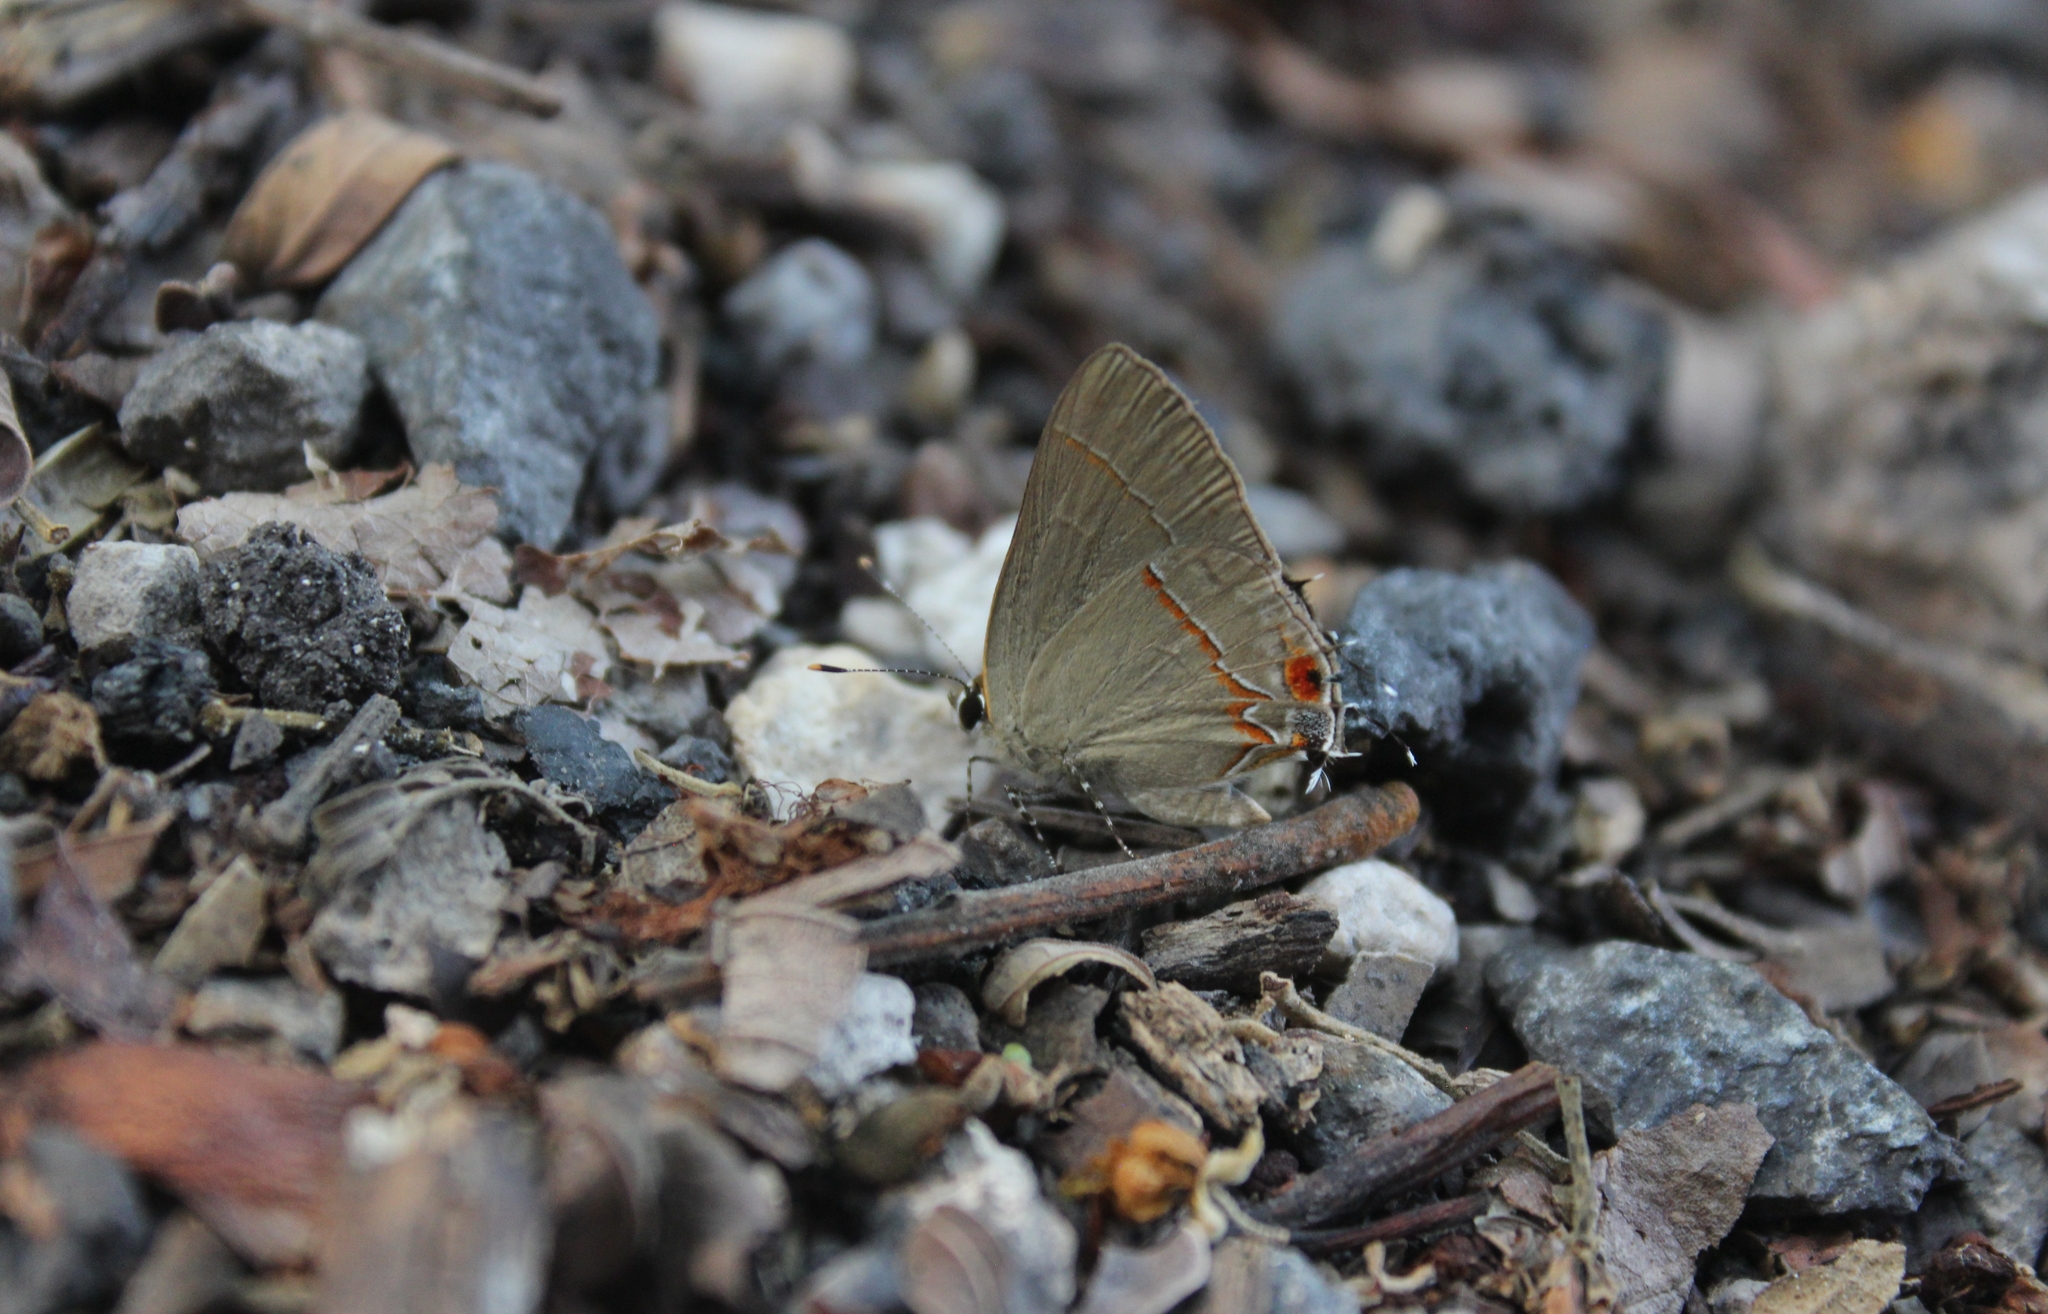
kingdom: Animalia
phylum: Arthropoda
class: Insecta
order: Lepidoptera
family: Lycaenidae
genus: Thecla
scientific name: Thecla syllis
